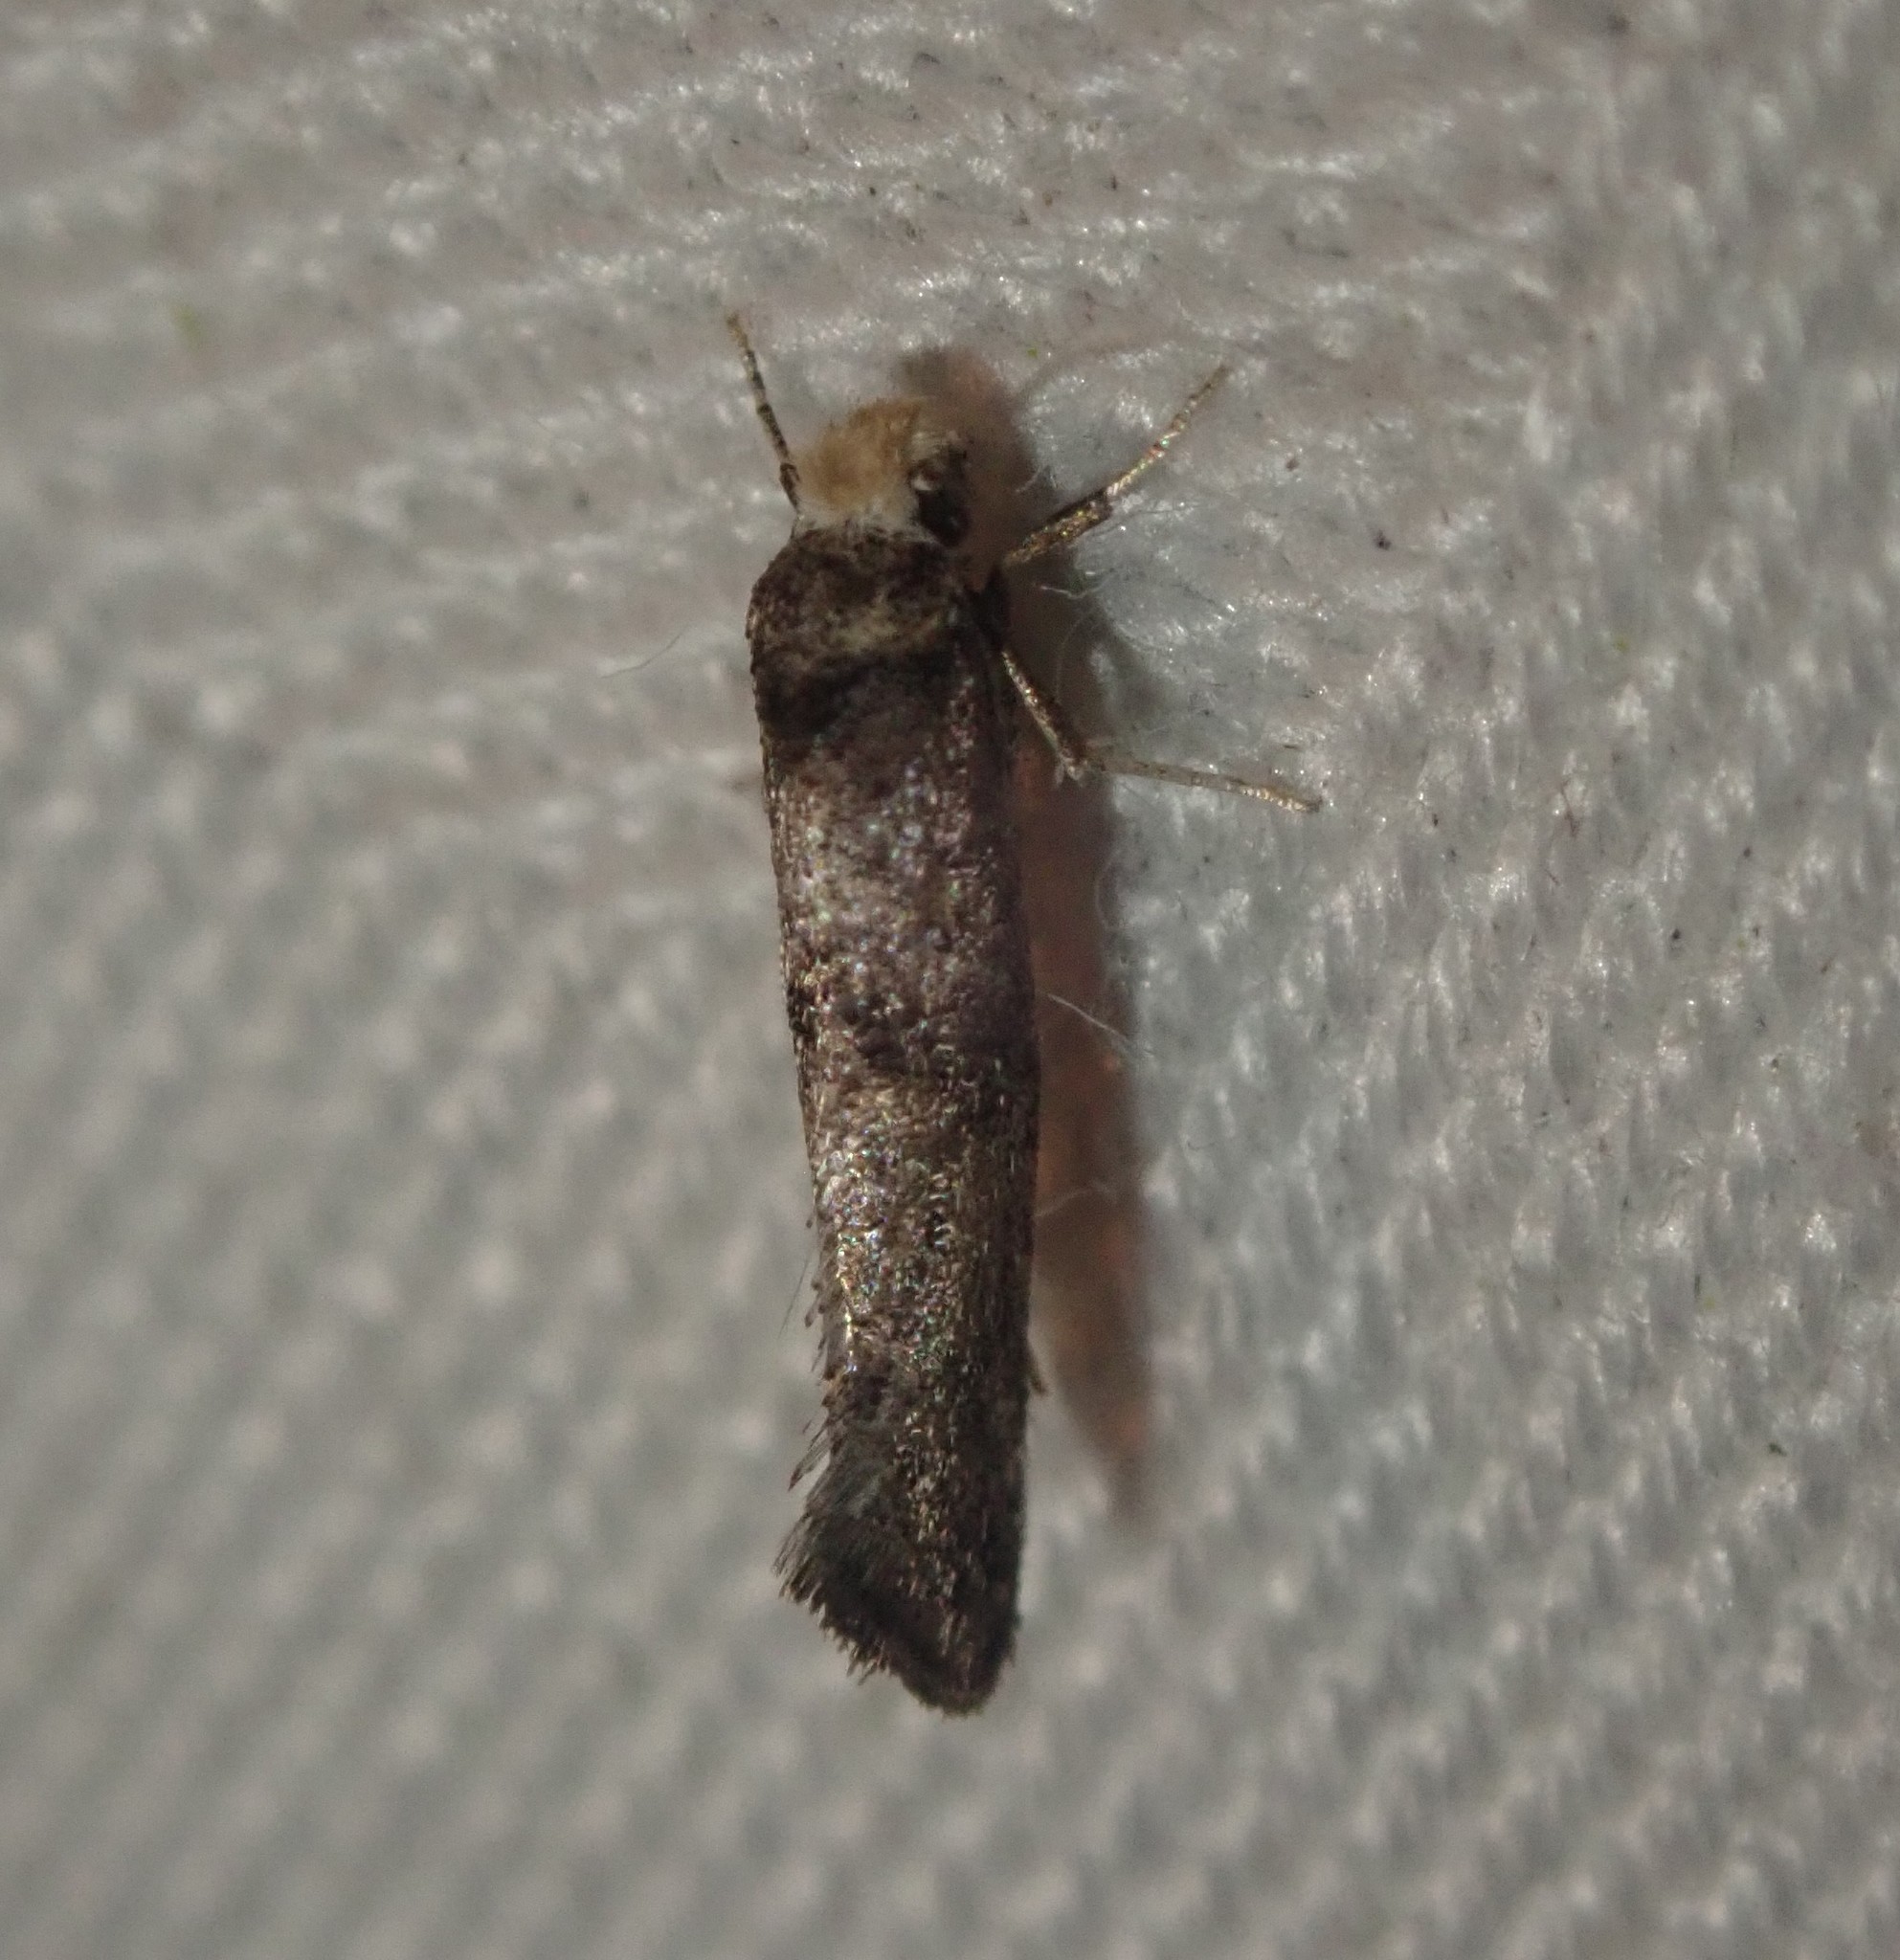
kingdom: Animalia
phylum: Arthropoda
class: Insecta
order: Lepidoptera
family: Yponomeutidae
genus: Paraswammerdamia
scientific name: Paraswammerdamia lutarea
